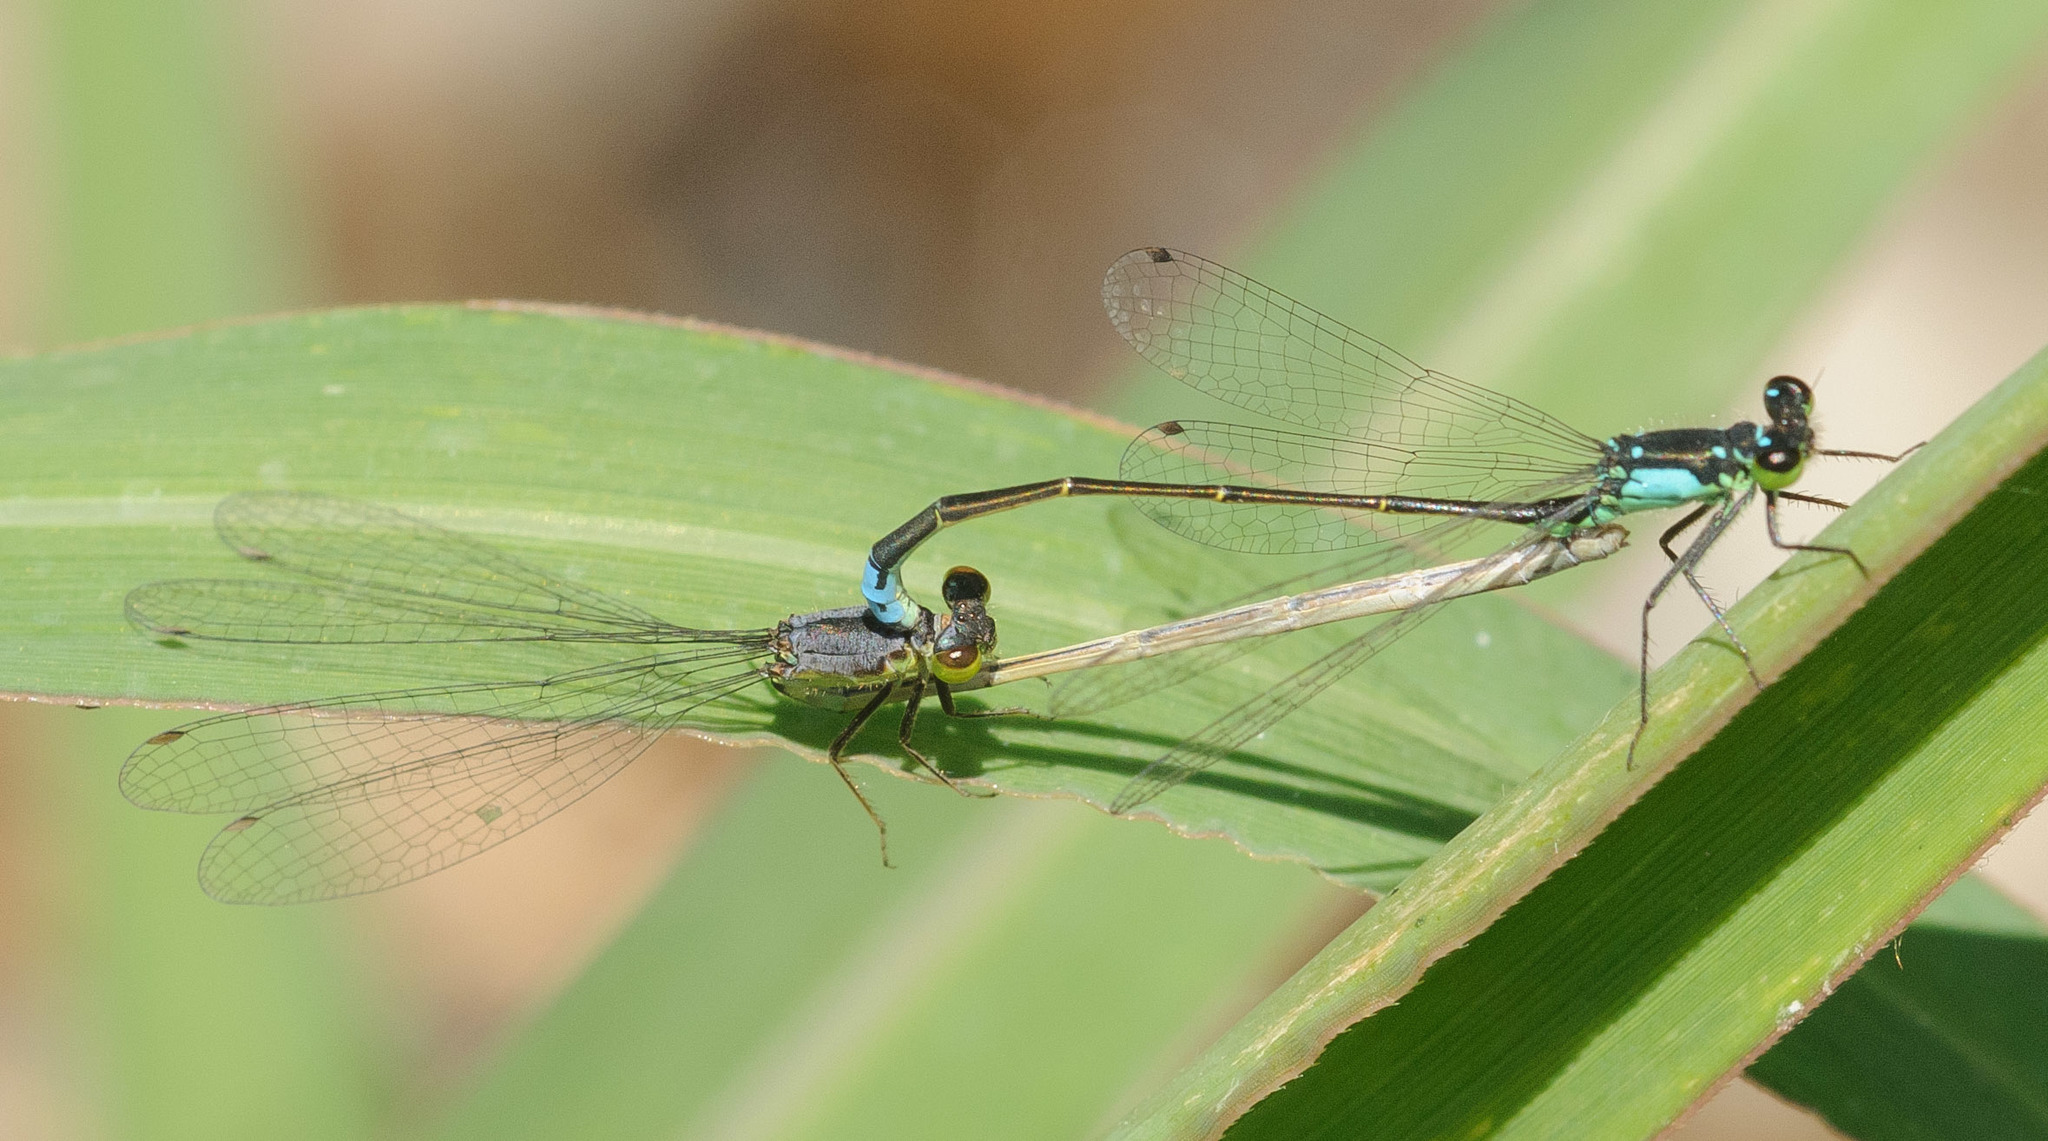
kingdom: Animalia
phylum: Arthropoda
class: Insecta
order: Odonata
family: Coenagrionidae
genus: Ischnura
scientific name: Ischnura cervula
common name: Pacific forktail
